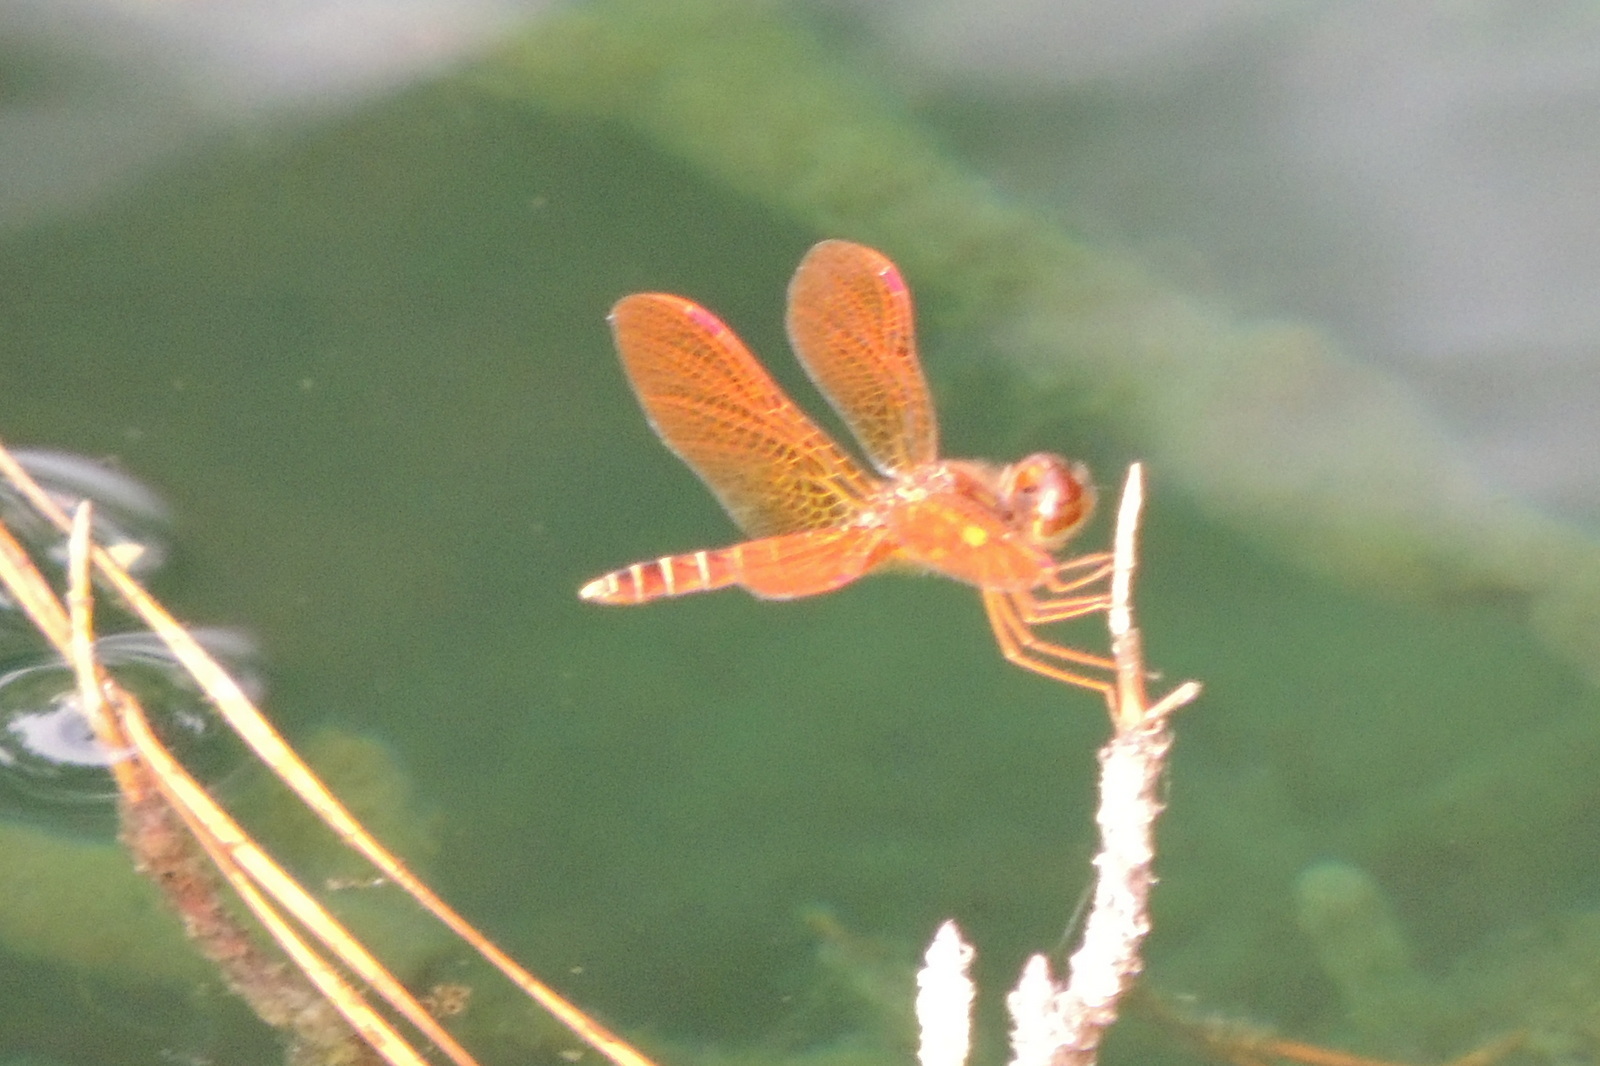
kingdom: Animalia
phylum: Arthropoda
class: Insecta
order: Odonata
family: Libellulidae
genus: Perithemis
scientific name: Perithemis tenera
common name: Eastern amberwing
